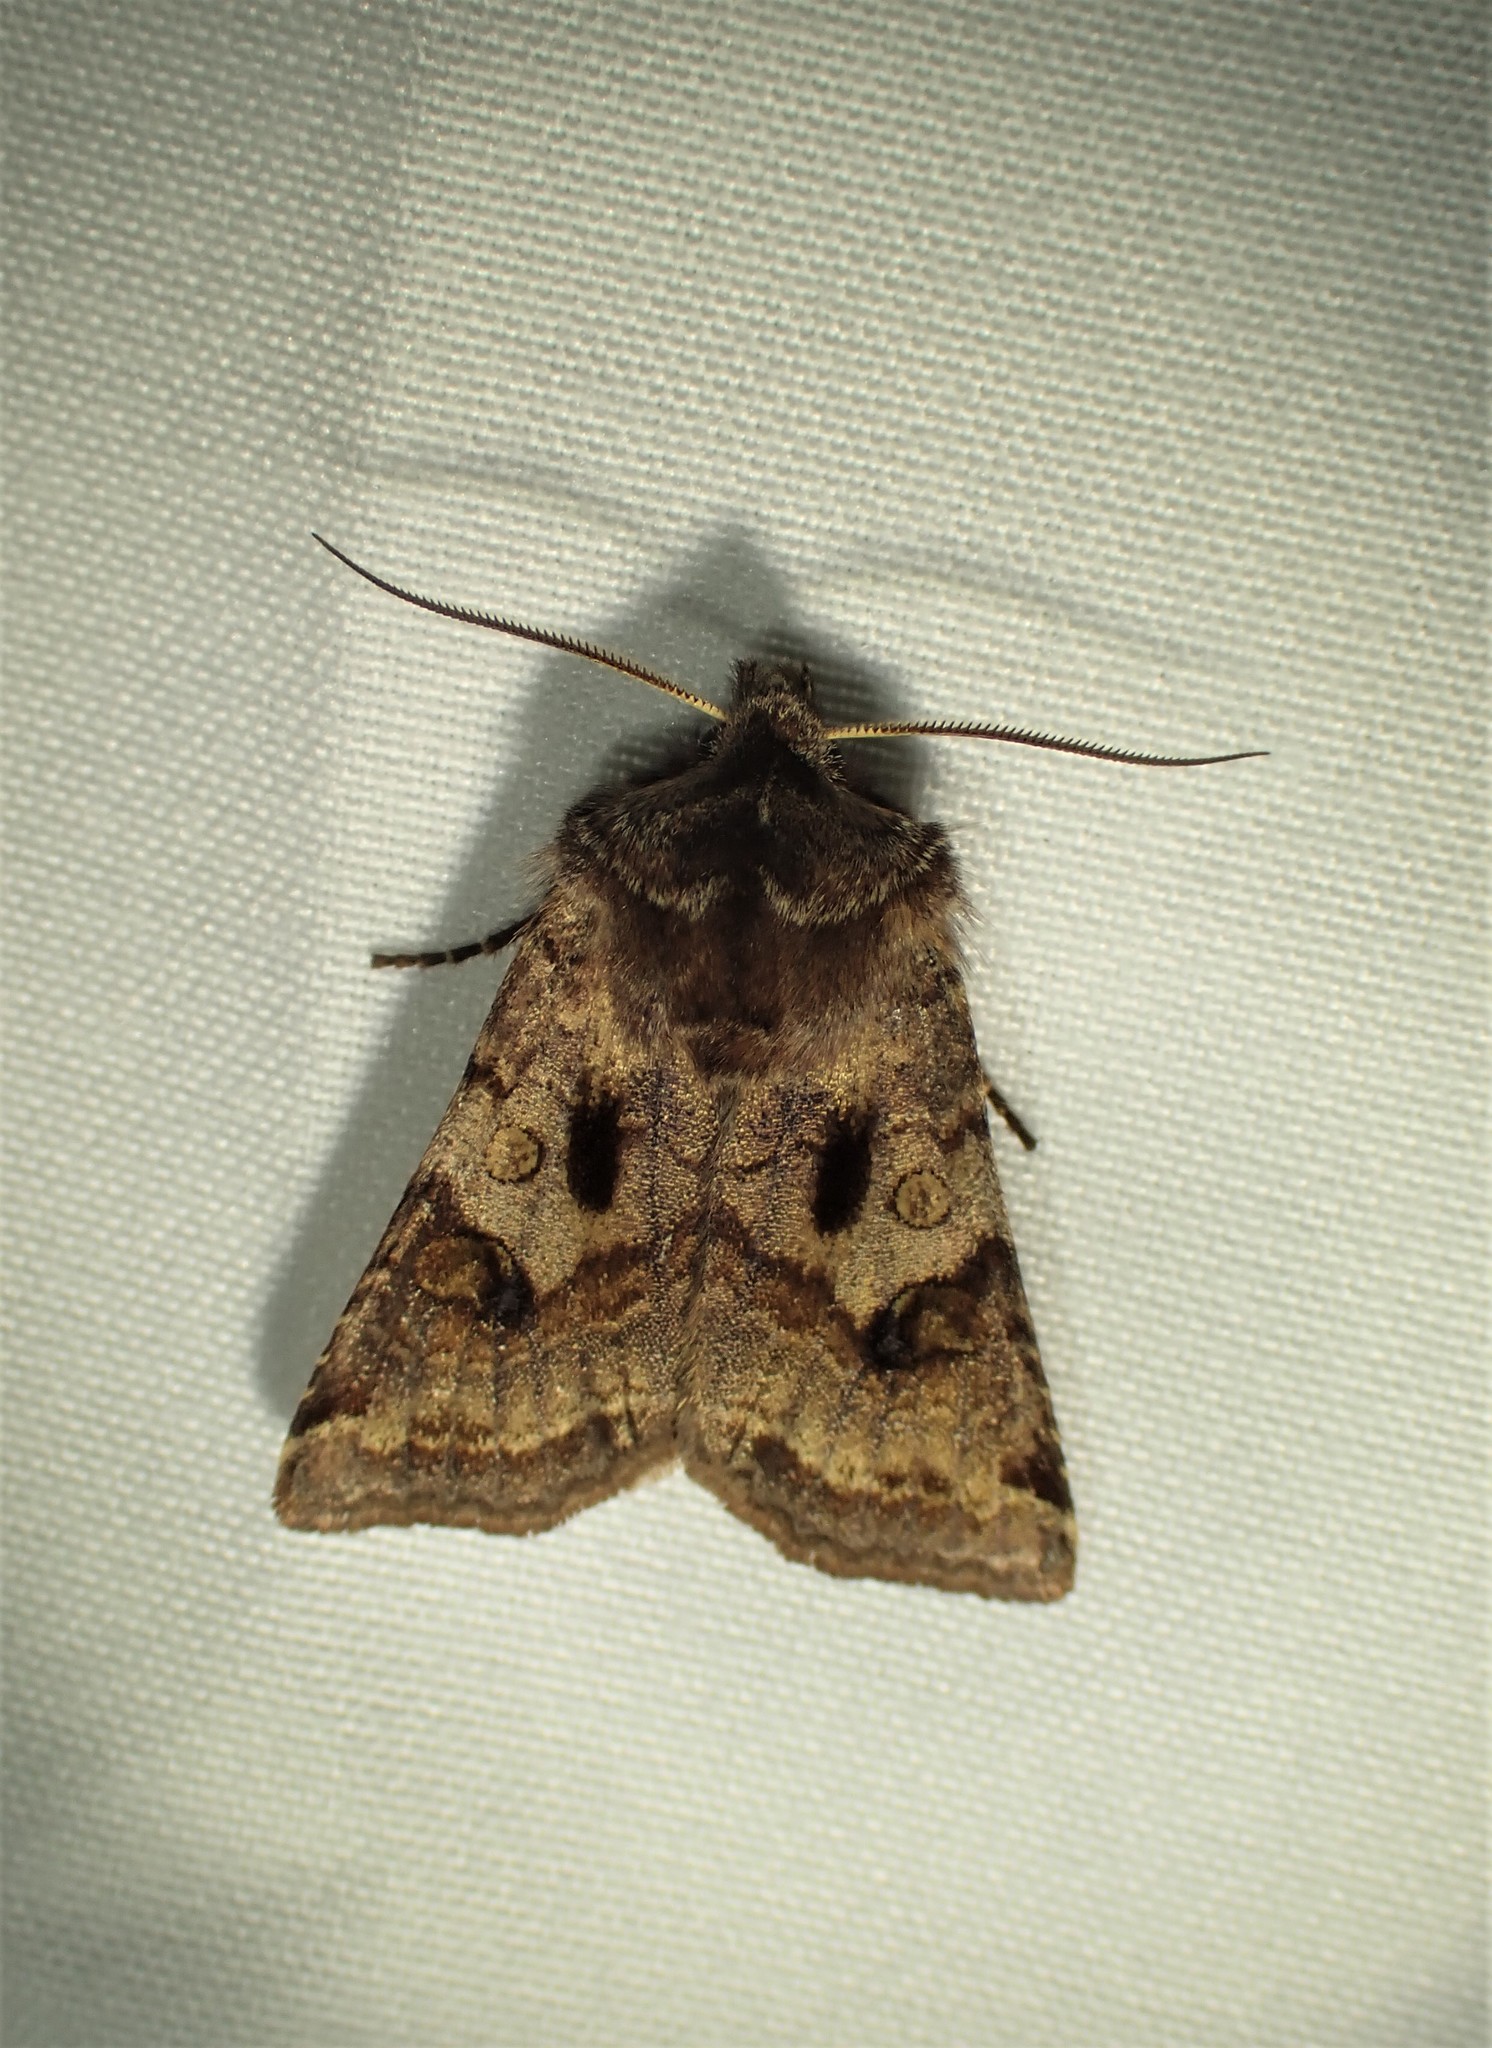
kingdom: Animalia
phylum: Arthropoda
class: Insecta
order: Lepidoptera
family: Noctuidae
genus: Cerastis
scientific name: Cerastis salicarum
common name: Willow dart
